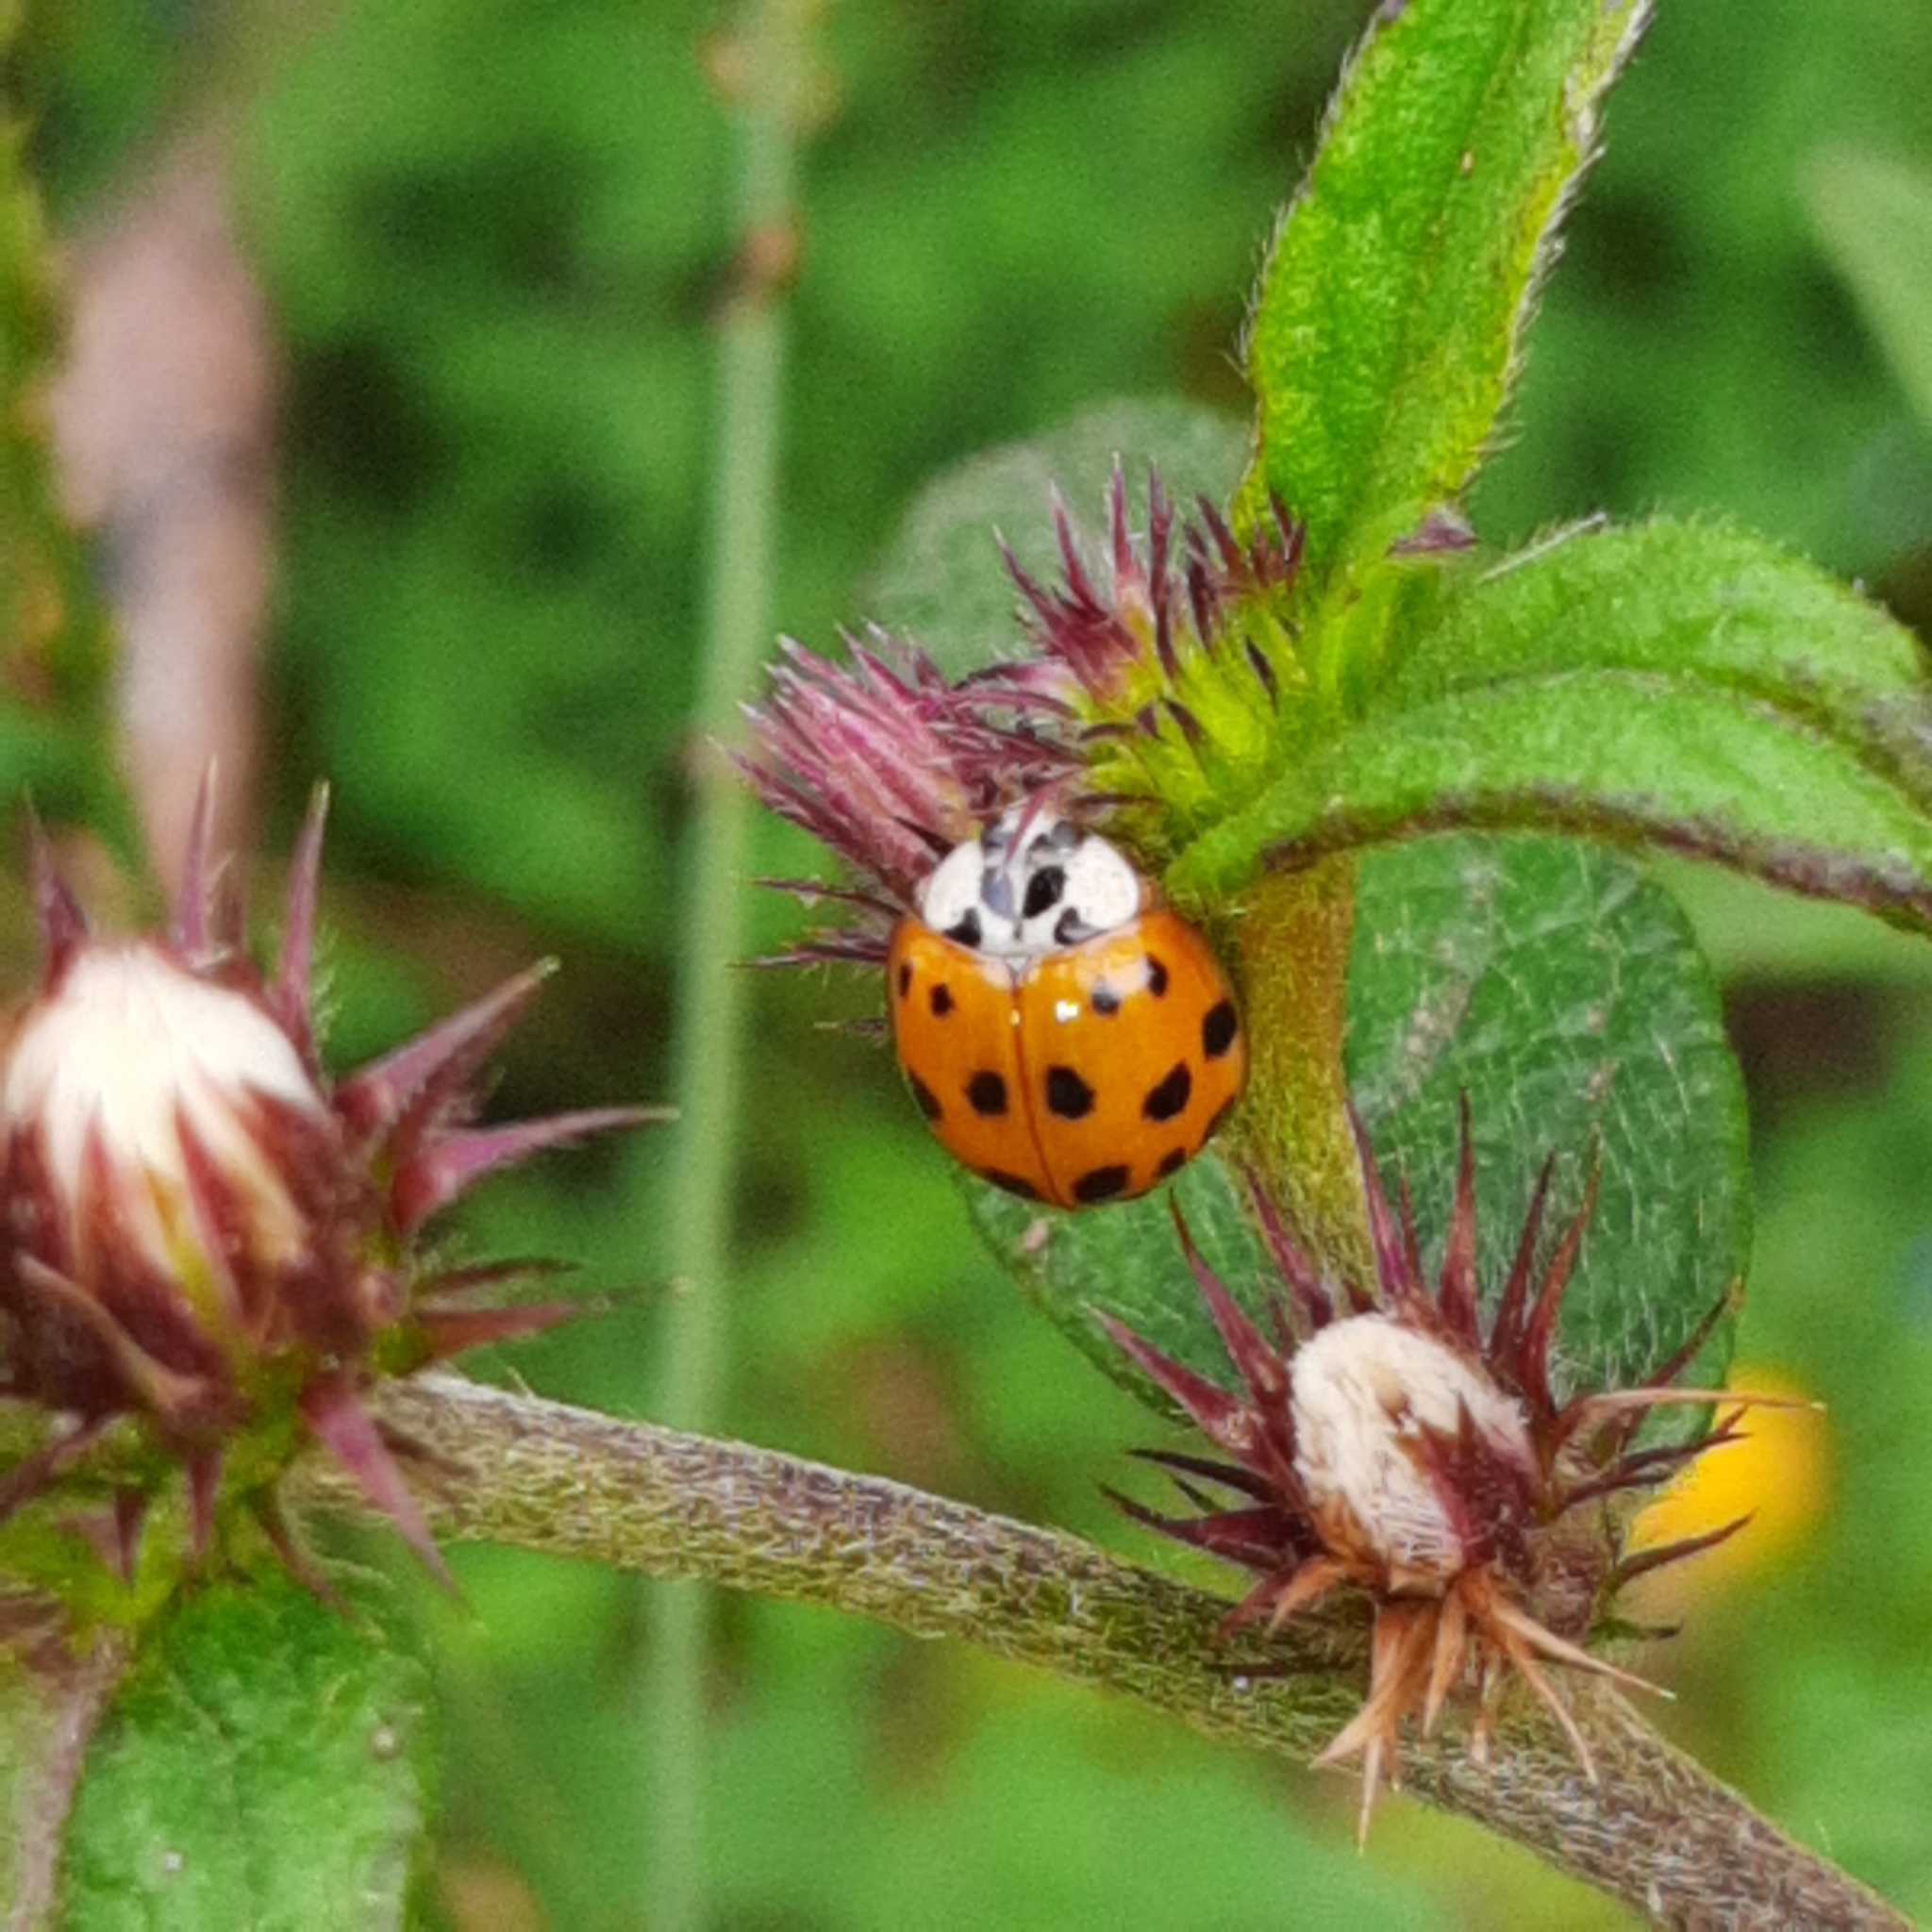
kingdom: Animalia
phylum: Arthropoda
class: Insecta
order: Coleoptera
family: Coccinellidae
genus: Harmonia
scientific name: Harmonia axyridis
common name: Harlequin ladybird
